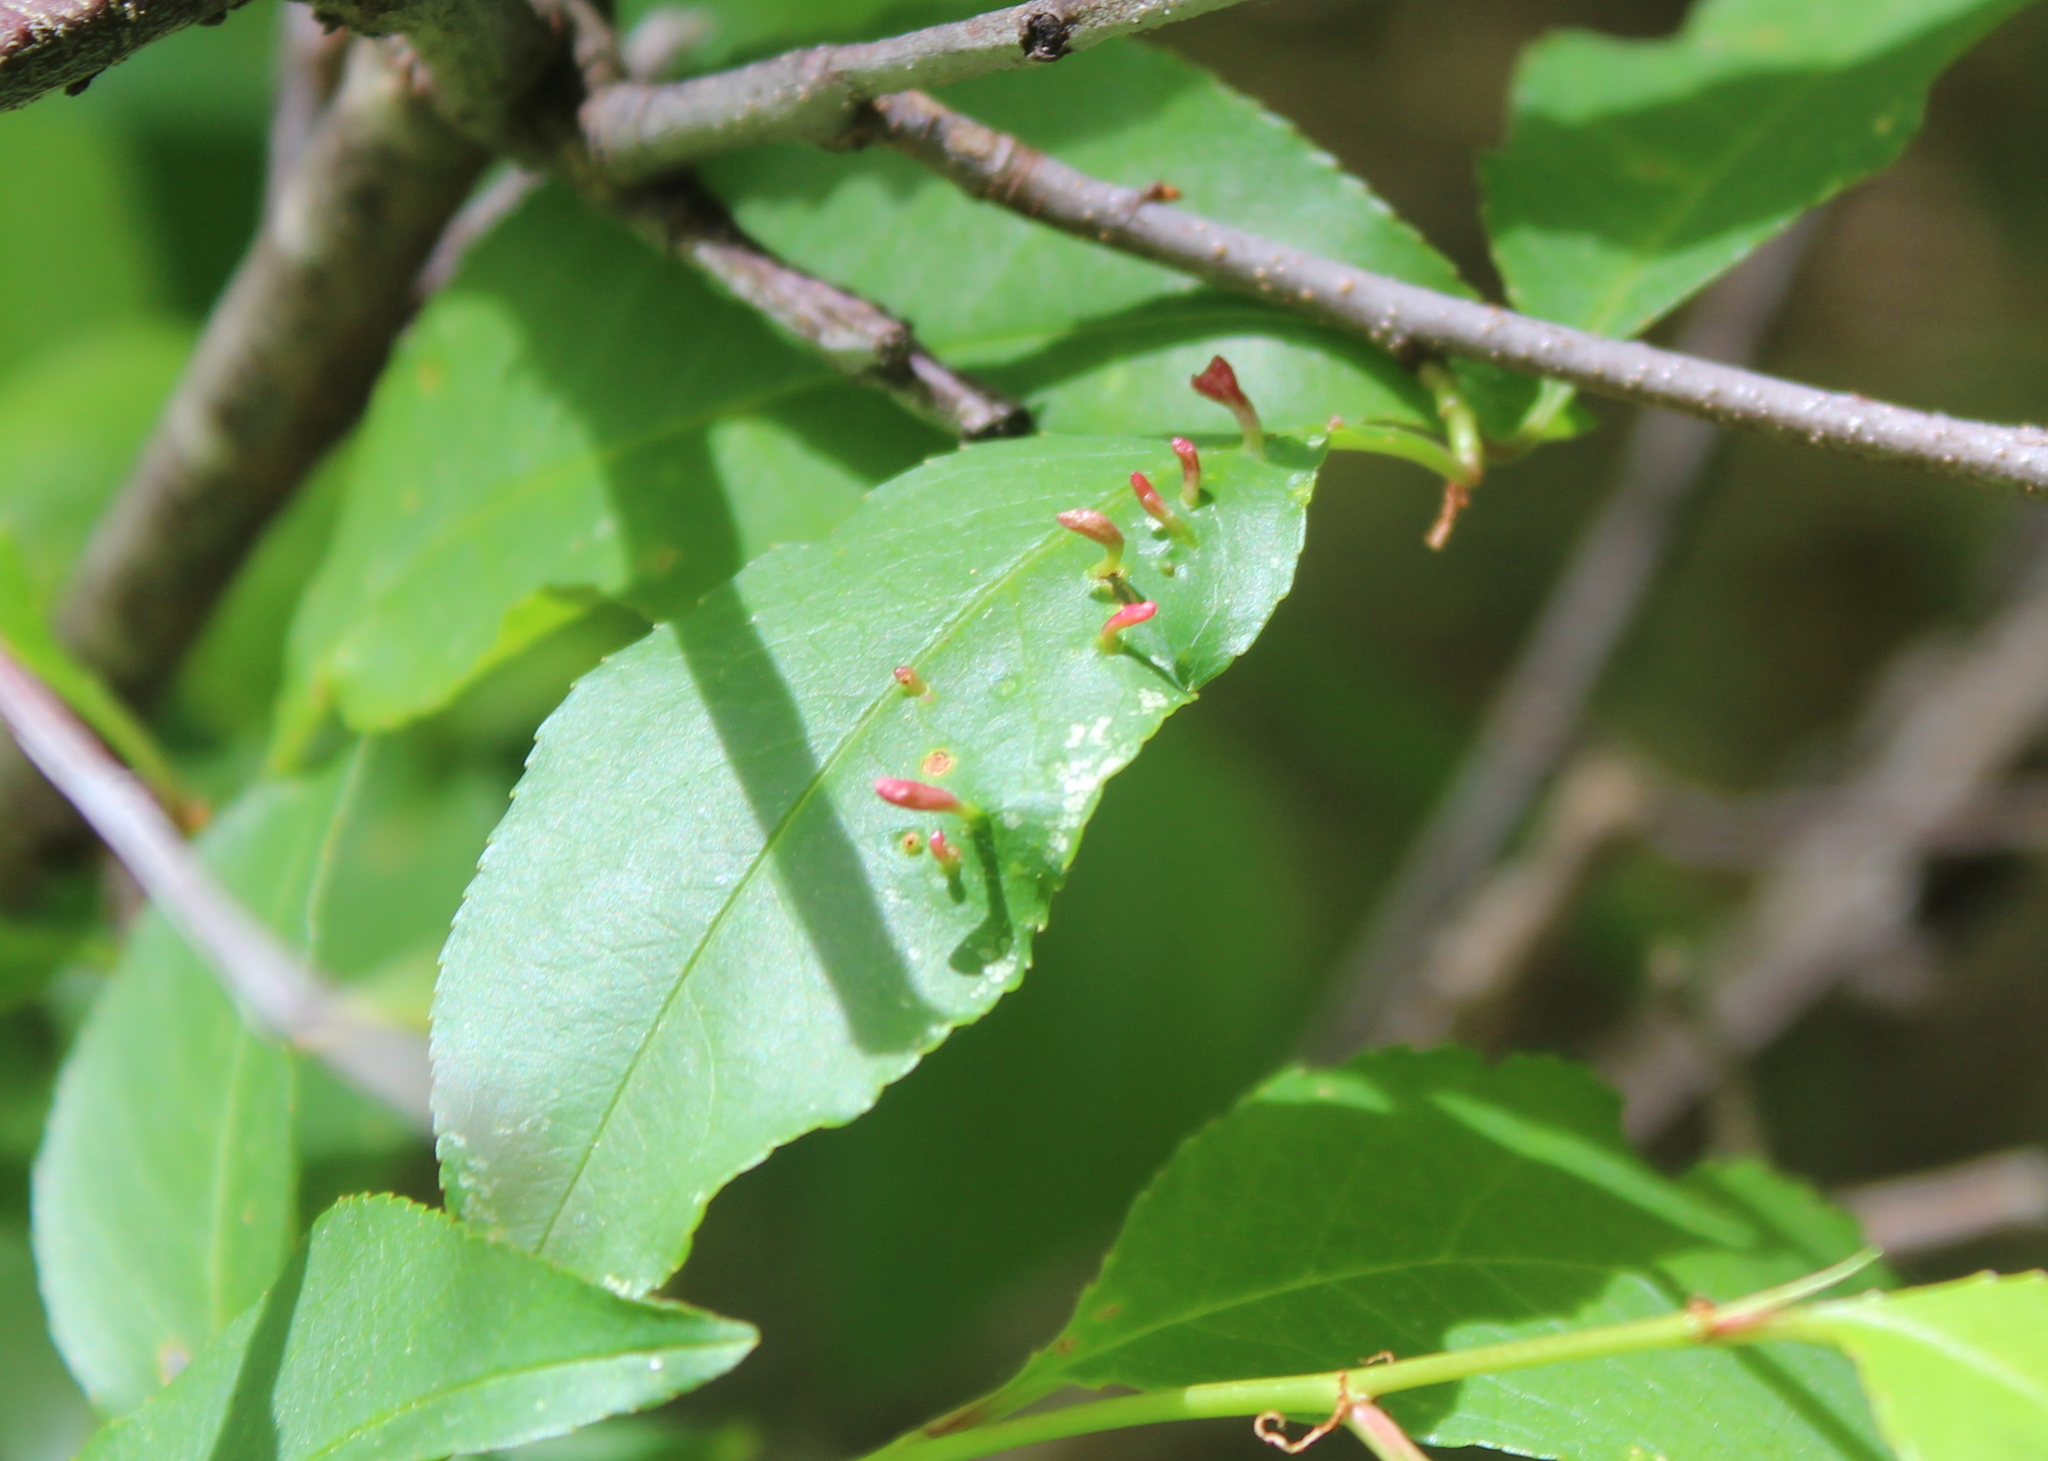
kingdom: Animalia
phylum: Arthropoda
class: Arachnida
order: Trombidiformes
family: Eriophyidae
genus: Eriophyes
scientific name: Eriophyes
